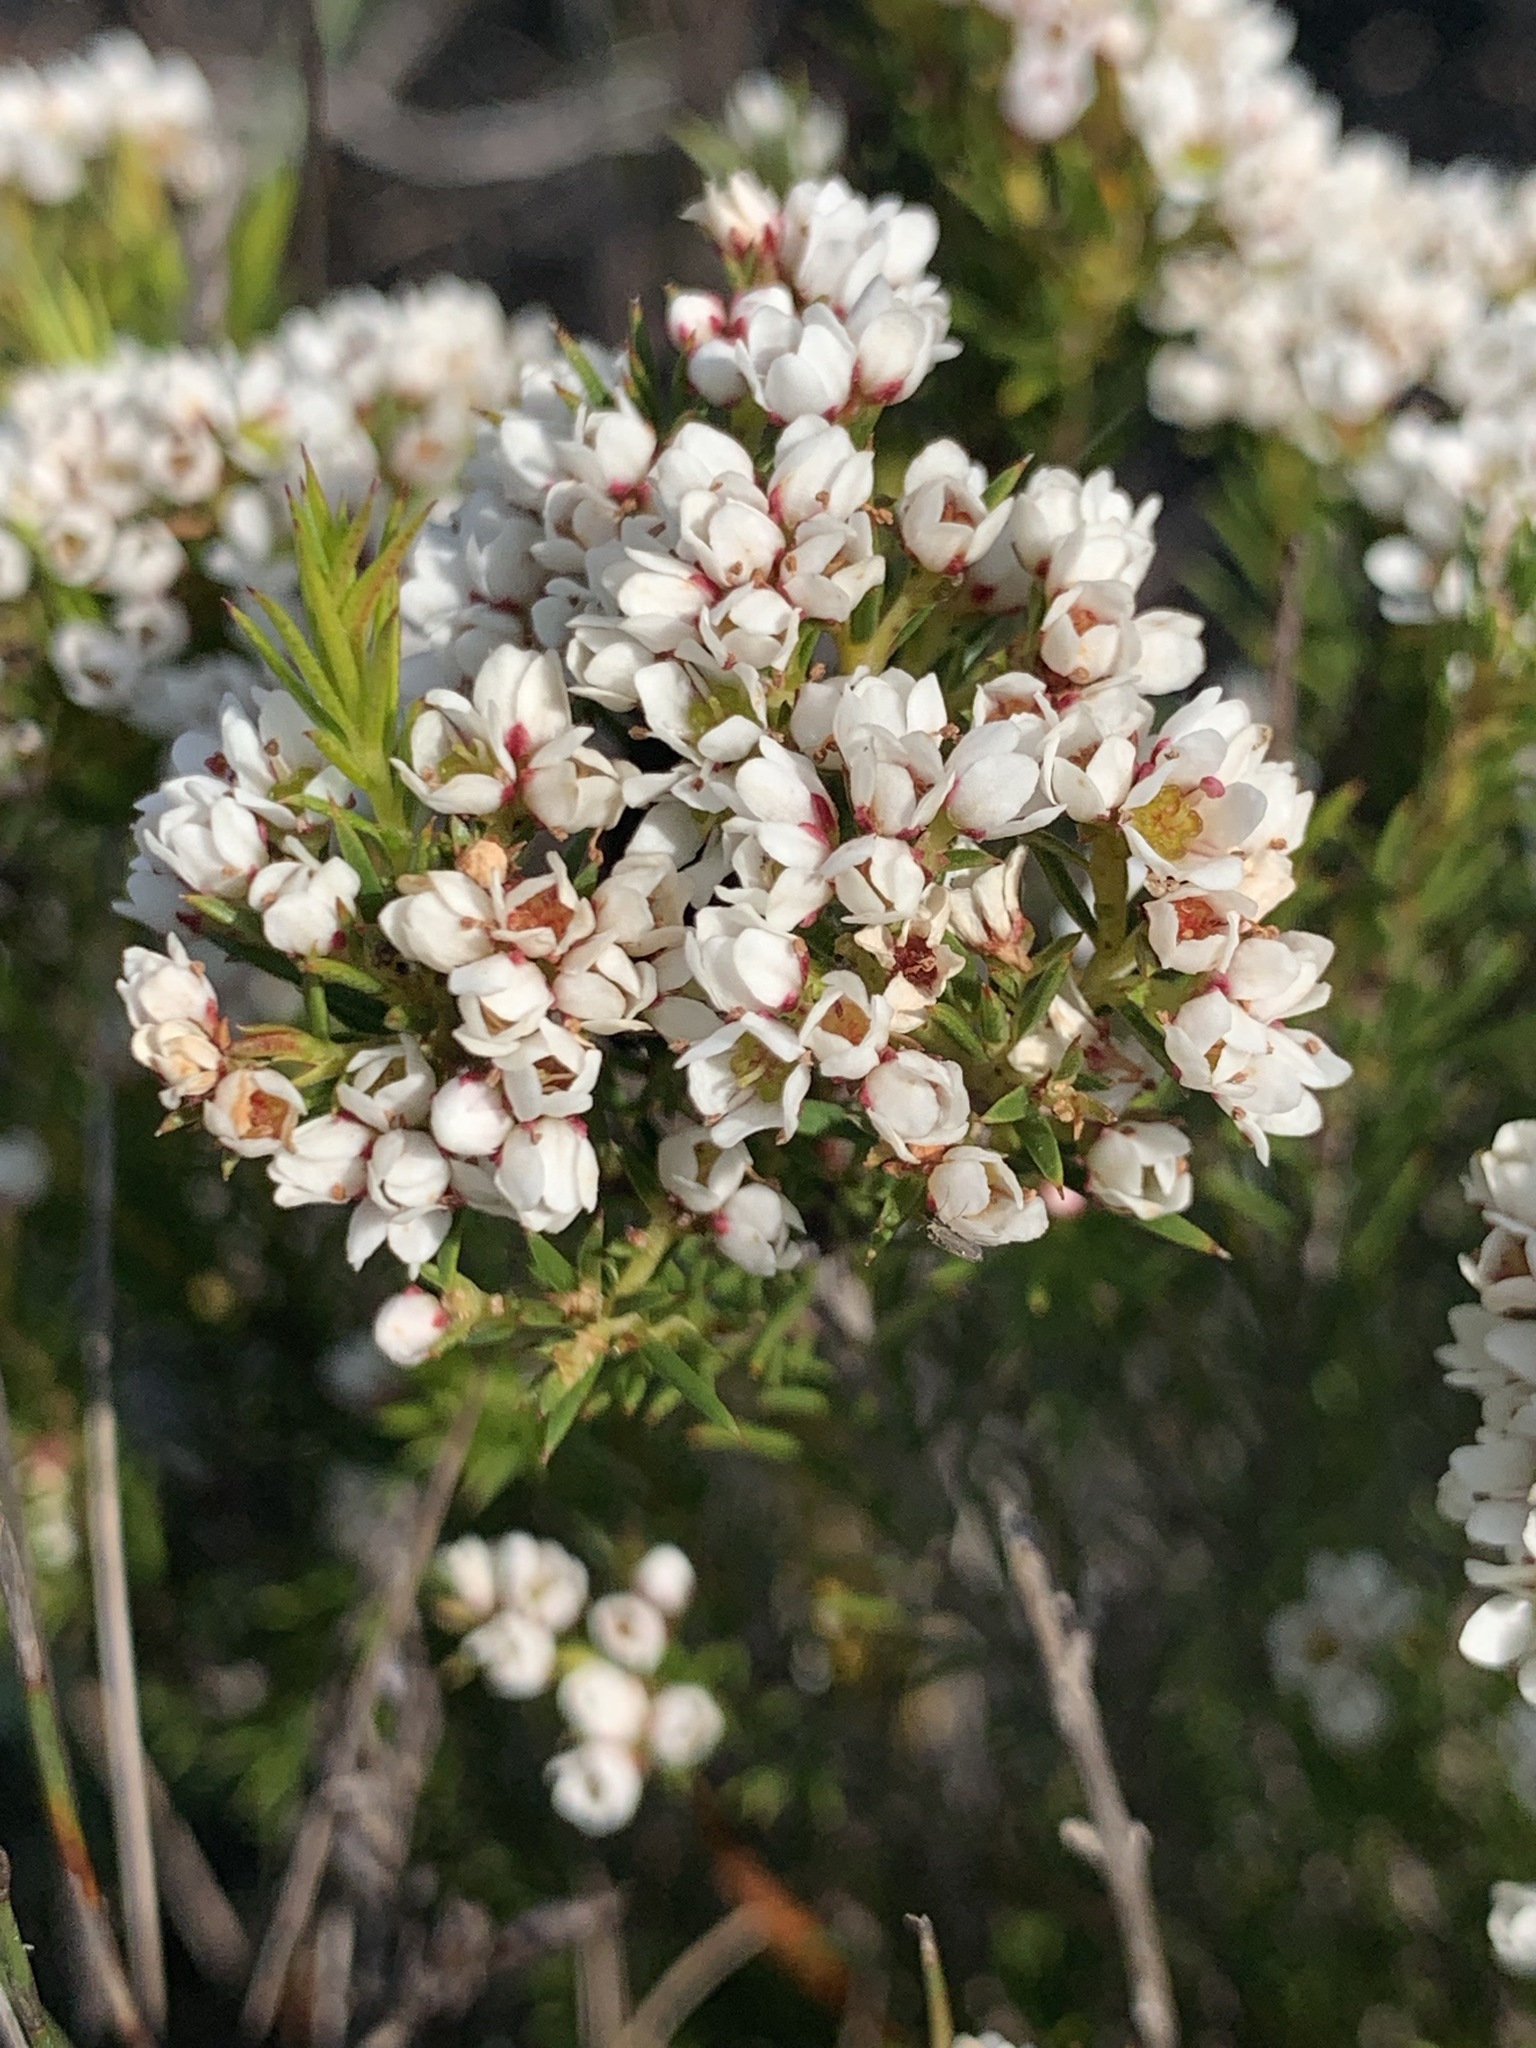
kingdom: Plantae
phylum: Tracheophyta
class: Magnoliopsida
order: Sapindales
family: Rutaceae
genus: Diosma
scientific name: Diosma hirsuta
